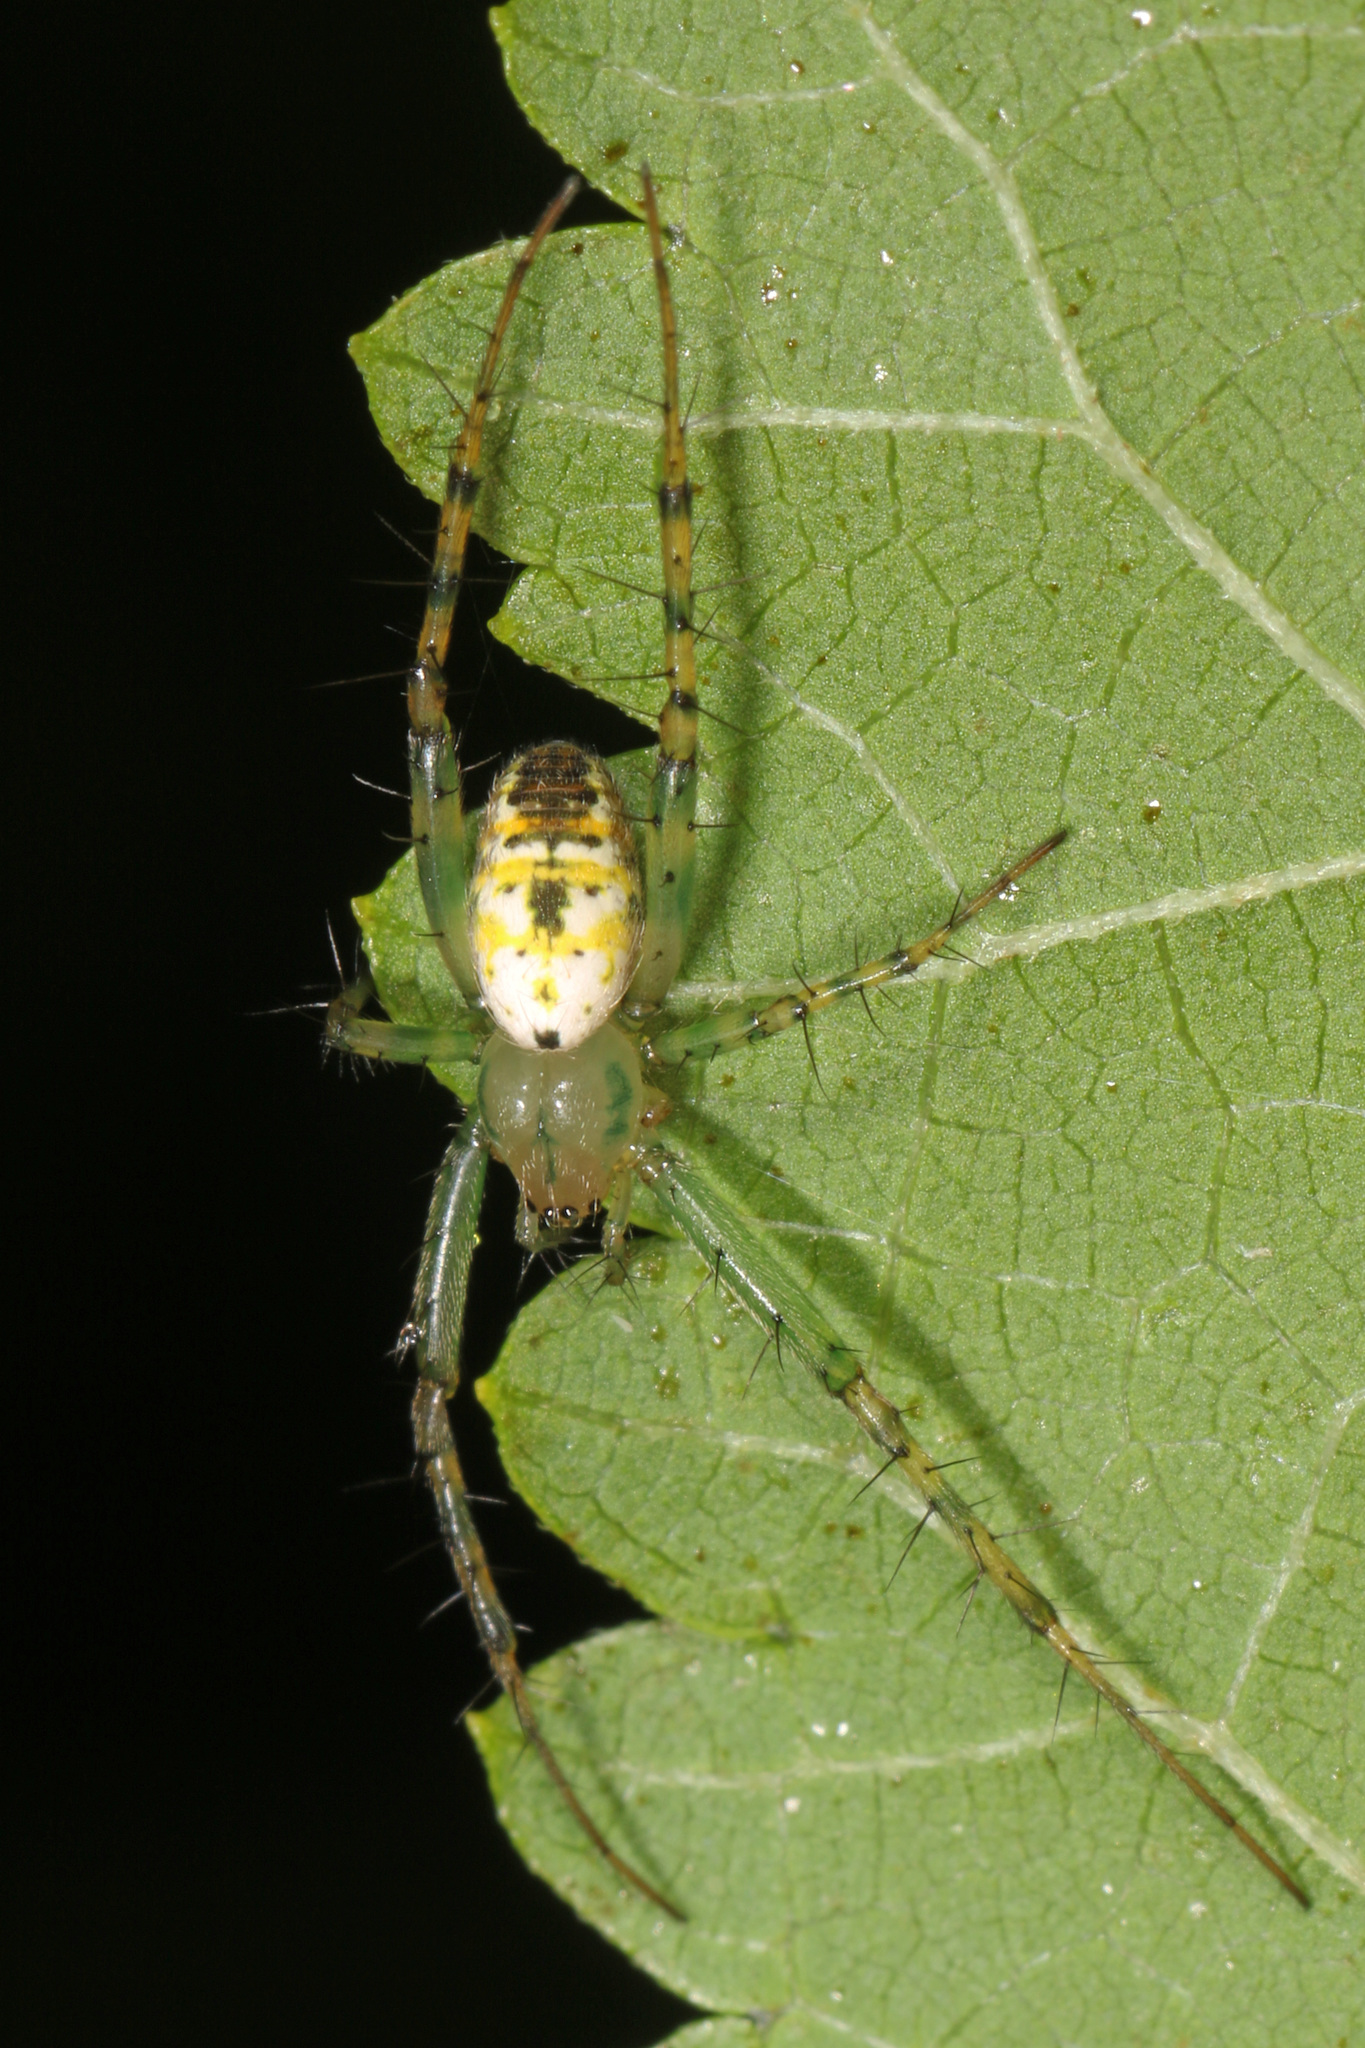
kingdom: Animalia
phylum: Arthropoda
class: Arachnida
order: Araneae
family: Araneidae
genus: Mangora
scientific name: Mangora spiculata
